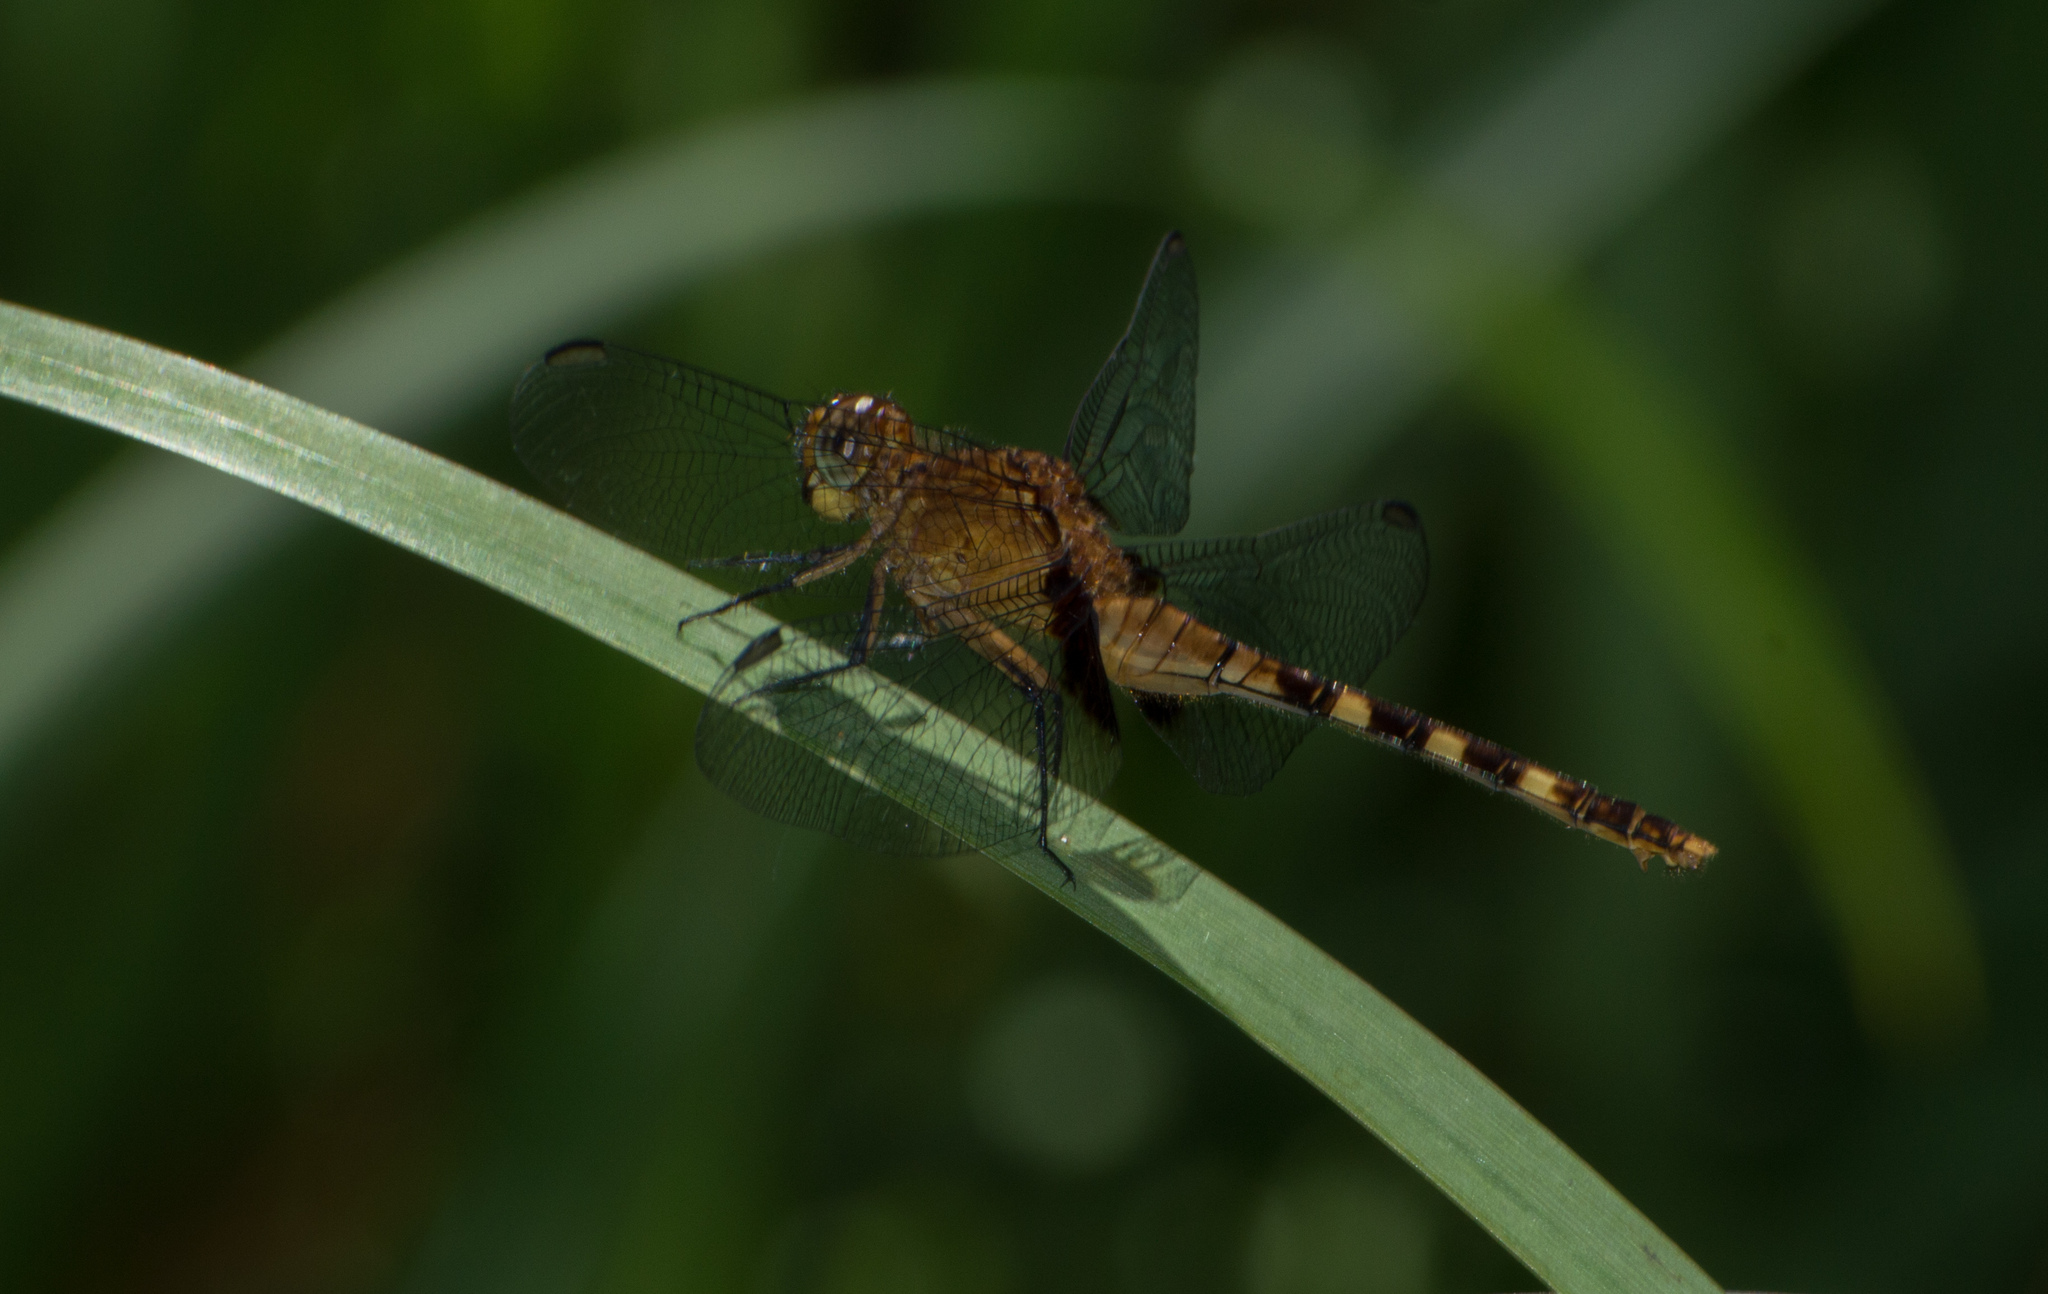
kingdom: Animalia
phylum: Arthropoda
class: Insecta
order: Odonata
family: Libellulidae
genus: Erythemis
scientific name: Erythemis attala
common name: Black pondhawk
